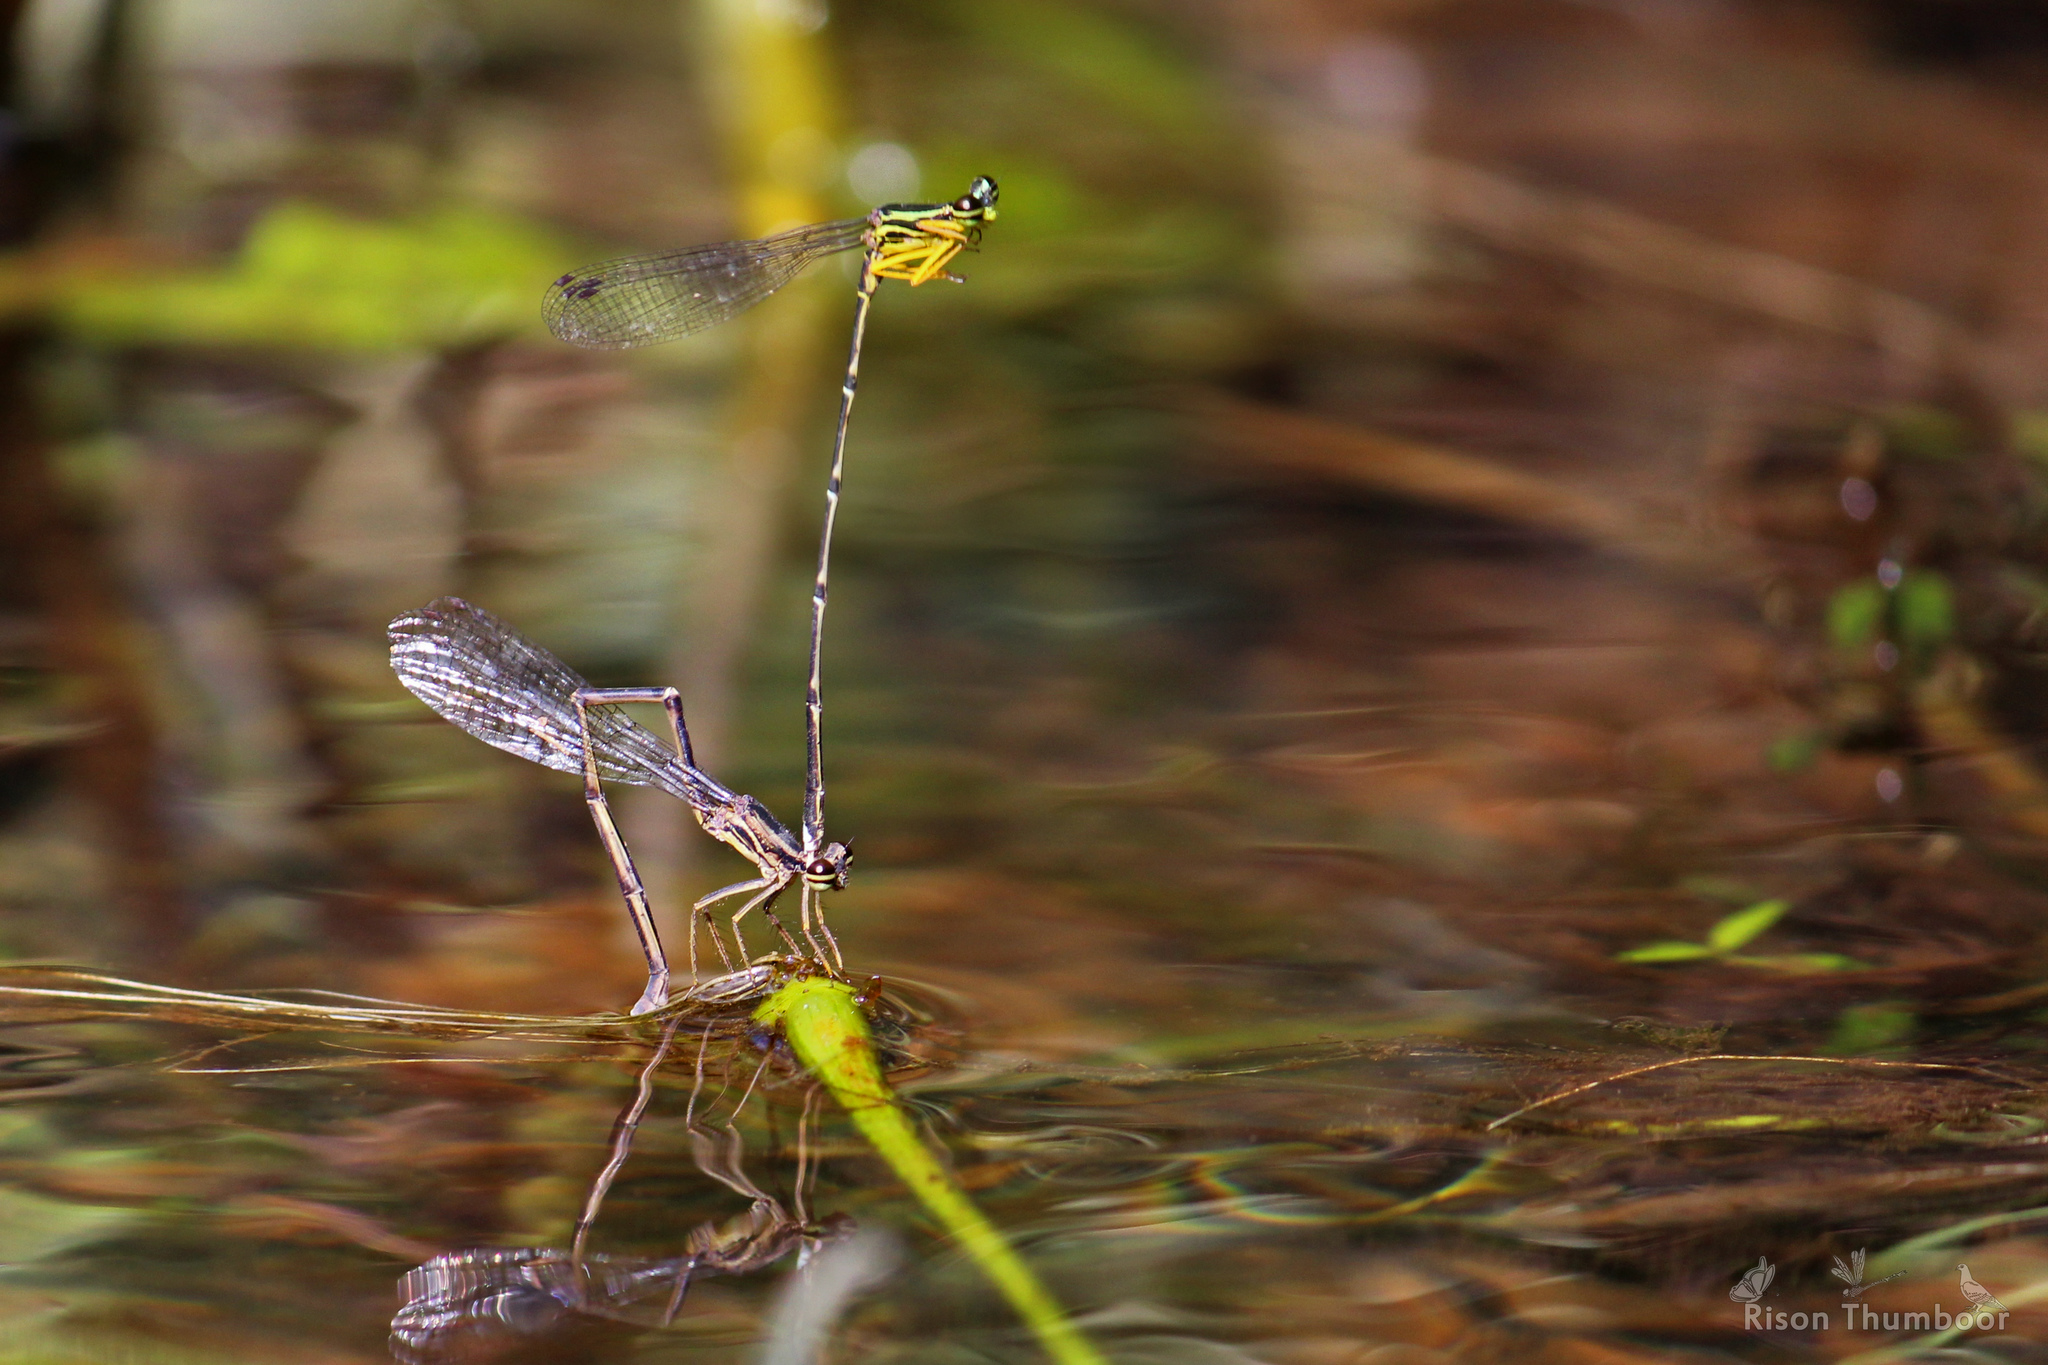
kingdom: Animalia
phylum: Arthropoda
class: Insecta
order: Odonata
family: Platycnemididae
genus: Copera
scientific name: Copera marginipes
